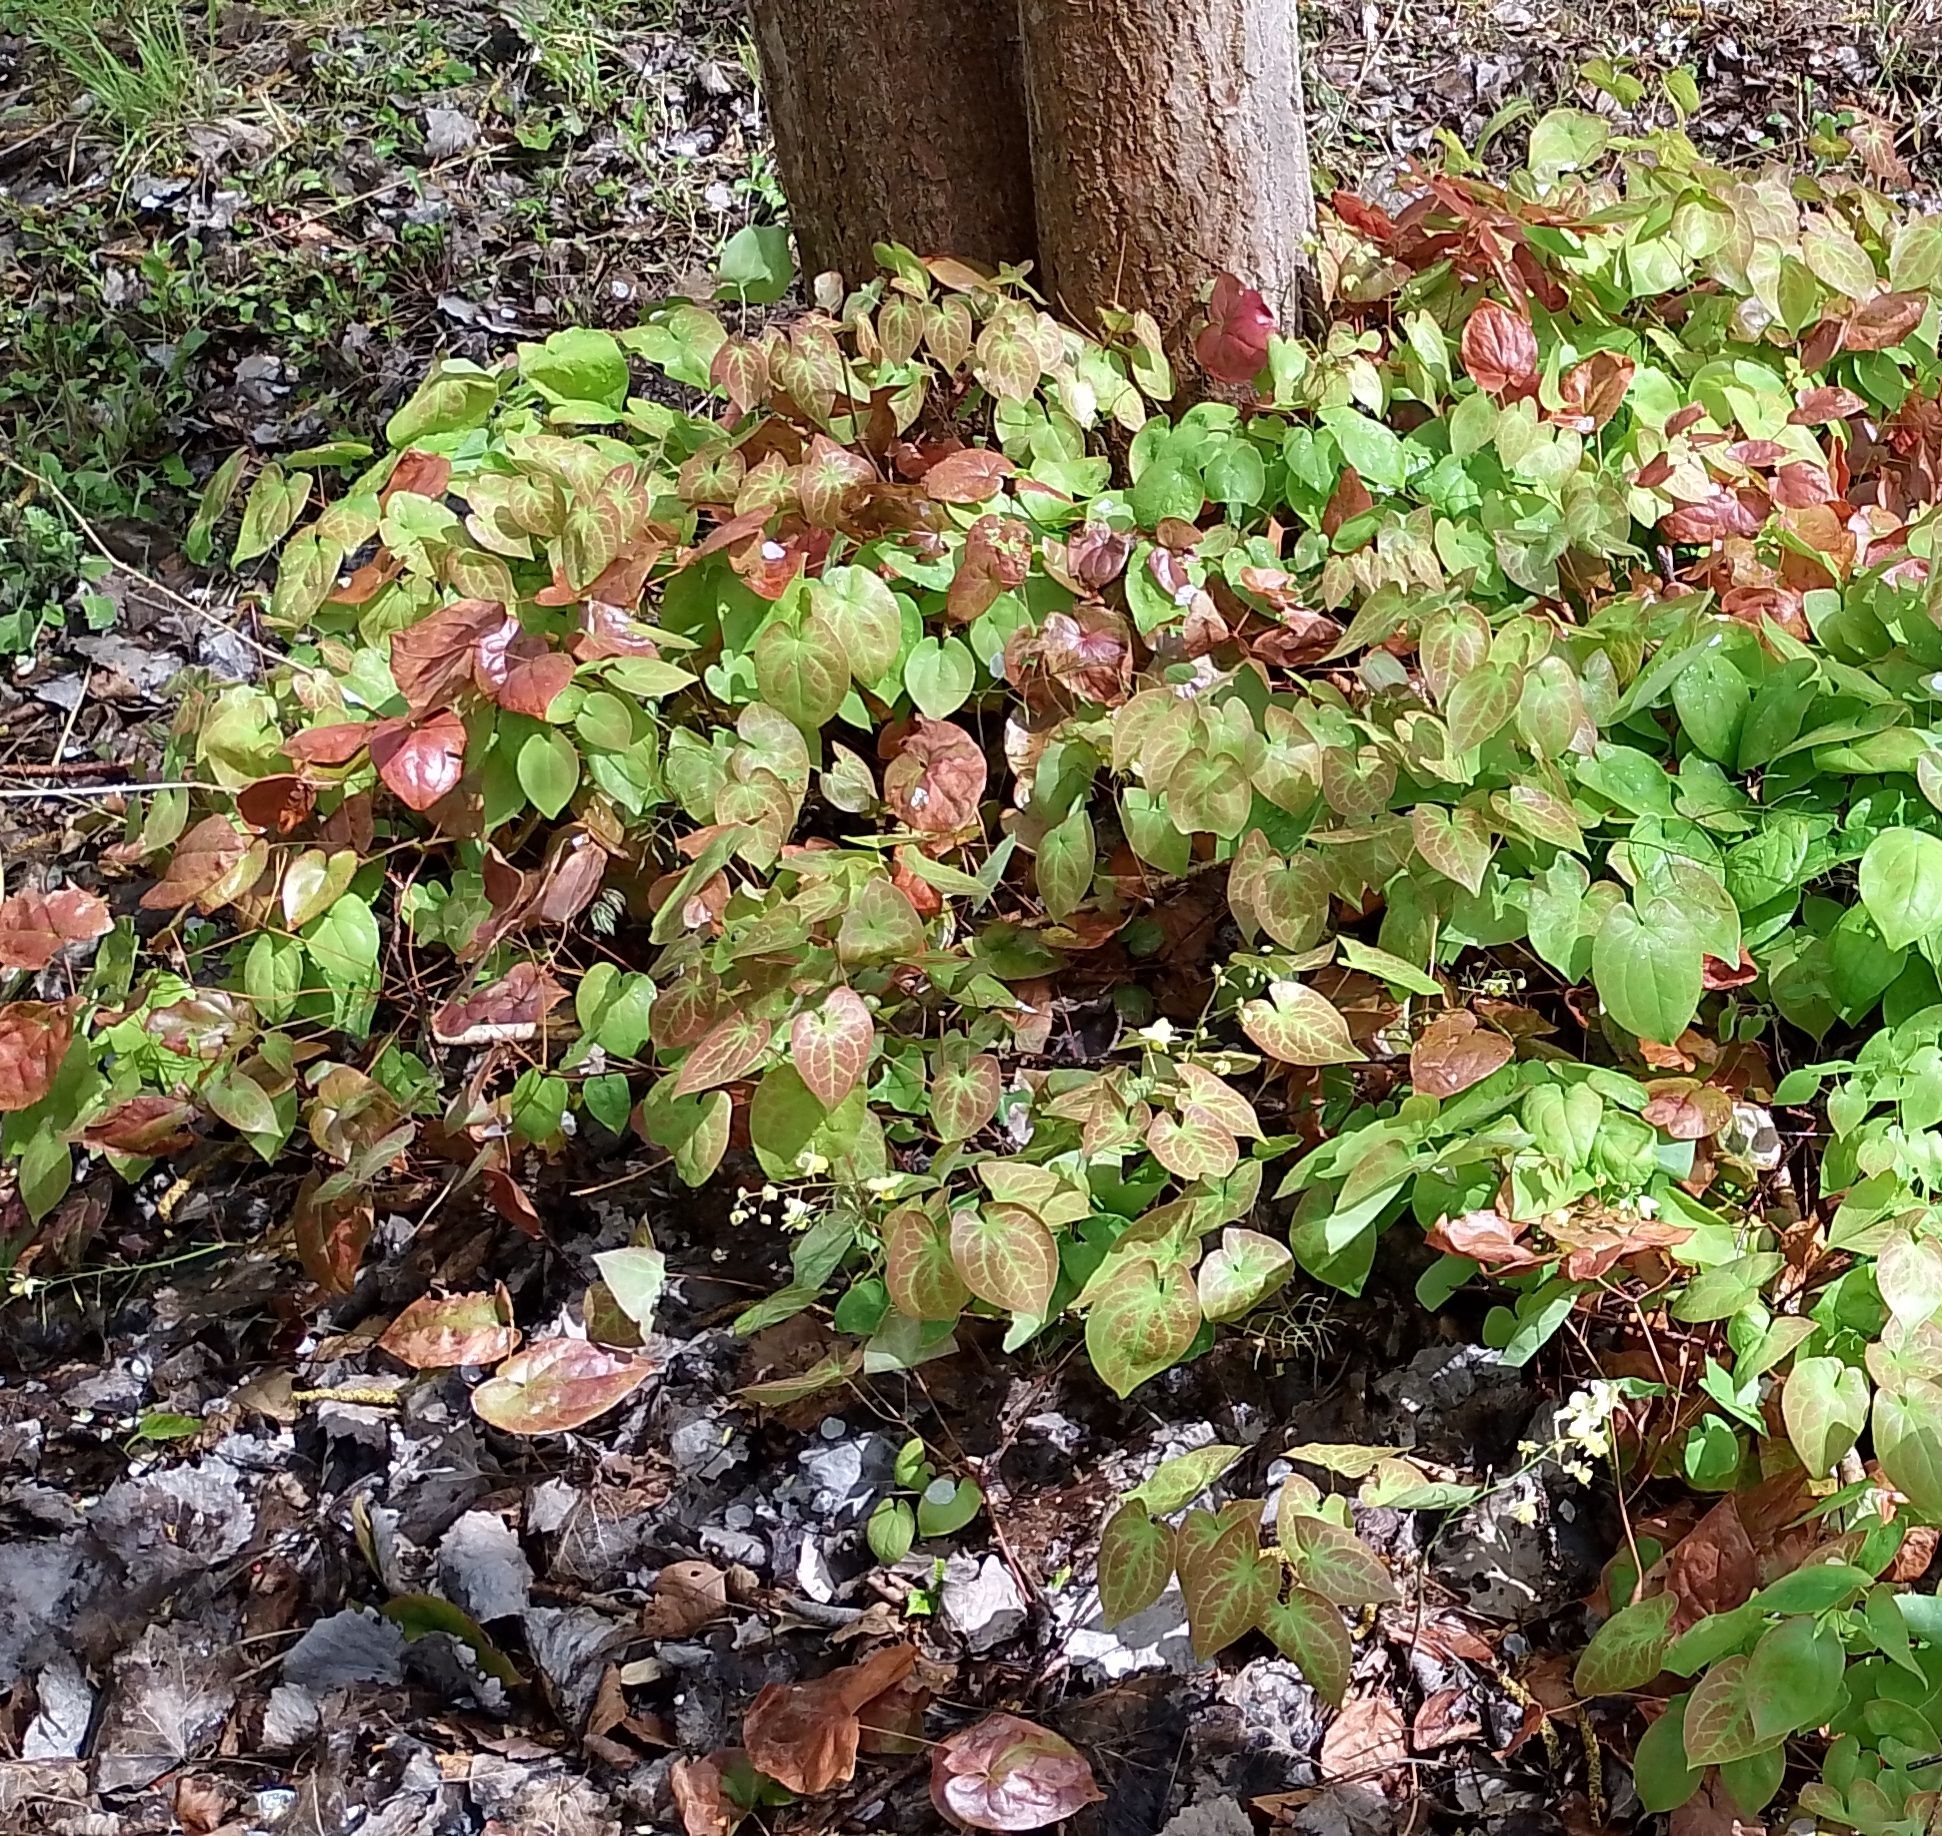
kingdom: Plantae
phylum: Tracheophyta
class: Magnoliopsida
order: Ranunculales
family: Berberidaceae
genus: Epimedium
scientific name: Epimedium versicolor
